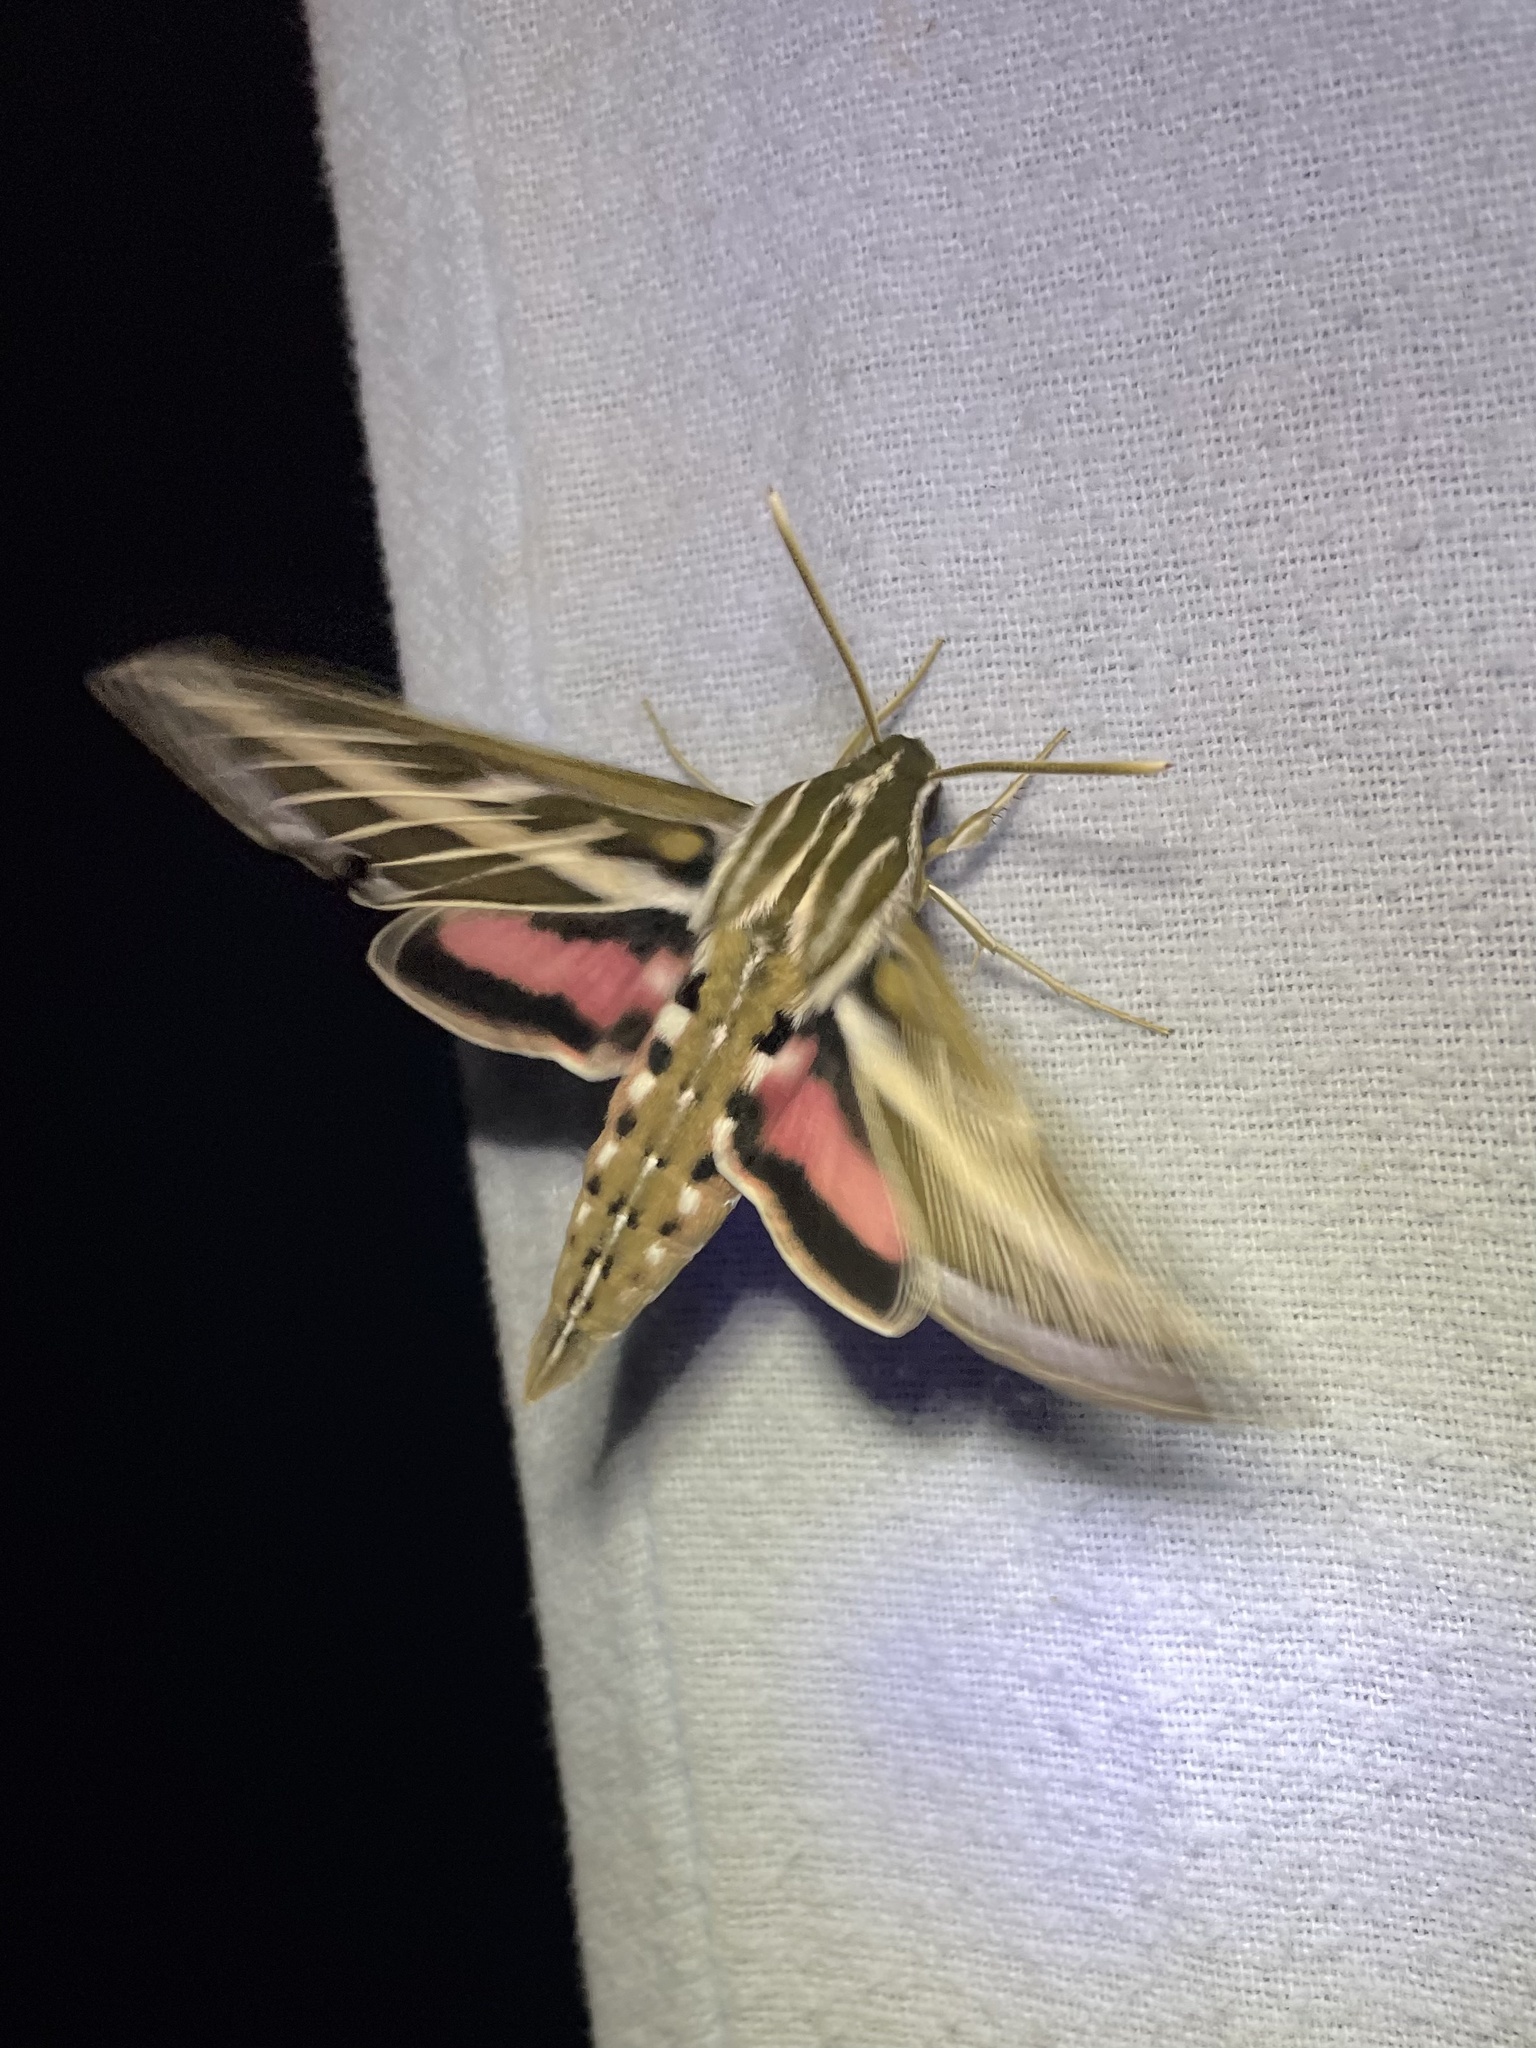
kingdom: Animalia
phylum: Arthropoda
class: Insecta
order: Lepidoptera
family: Sphingidae
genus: Hyles
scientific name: Hyles lineata
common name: White-lined sphinx
